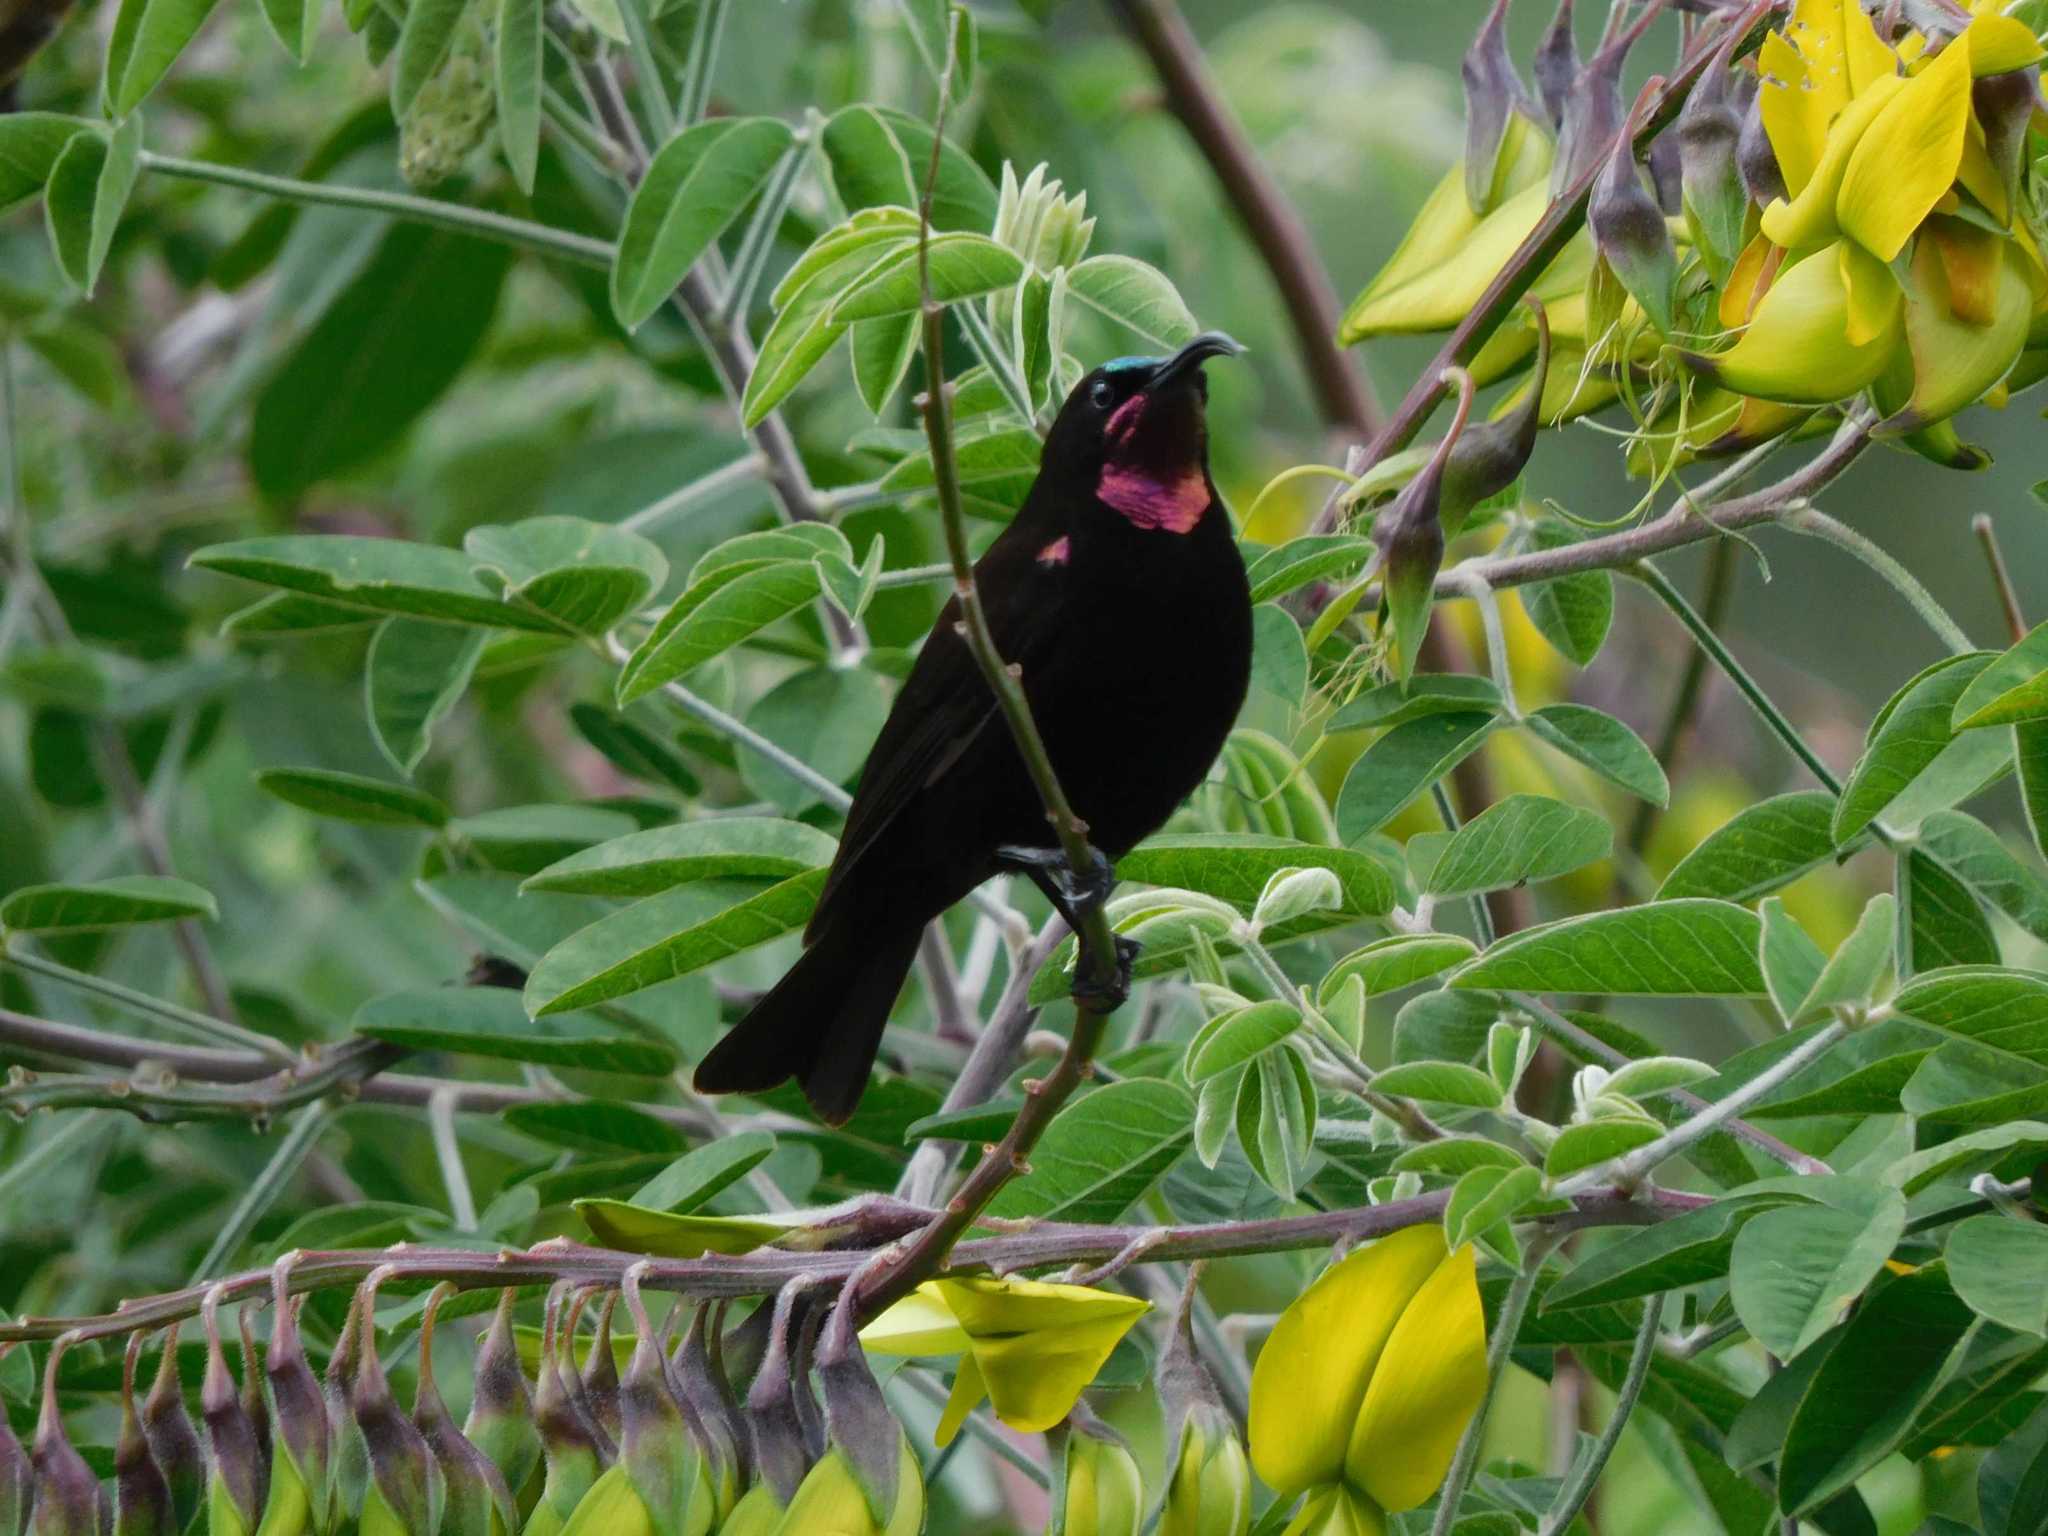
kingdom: Animalia
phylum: Chordata
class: Aves
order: Passeriformes
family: Nectariniidae
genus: Chalcomitra
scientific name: Chalcomitra amethystina
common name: Amethyst sunbird
